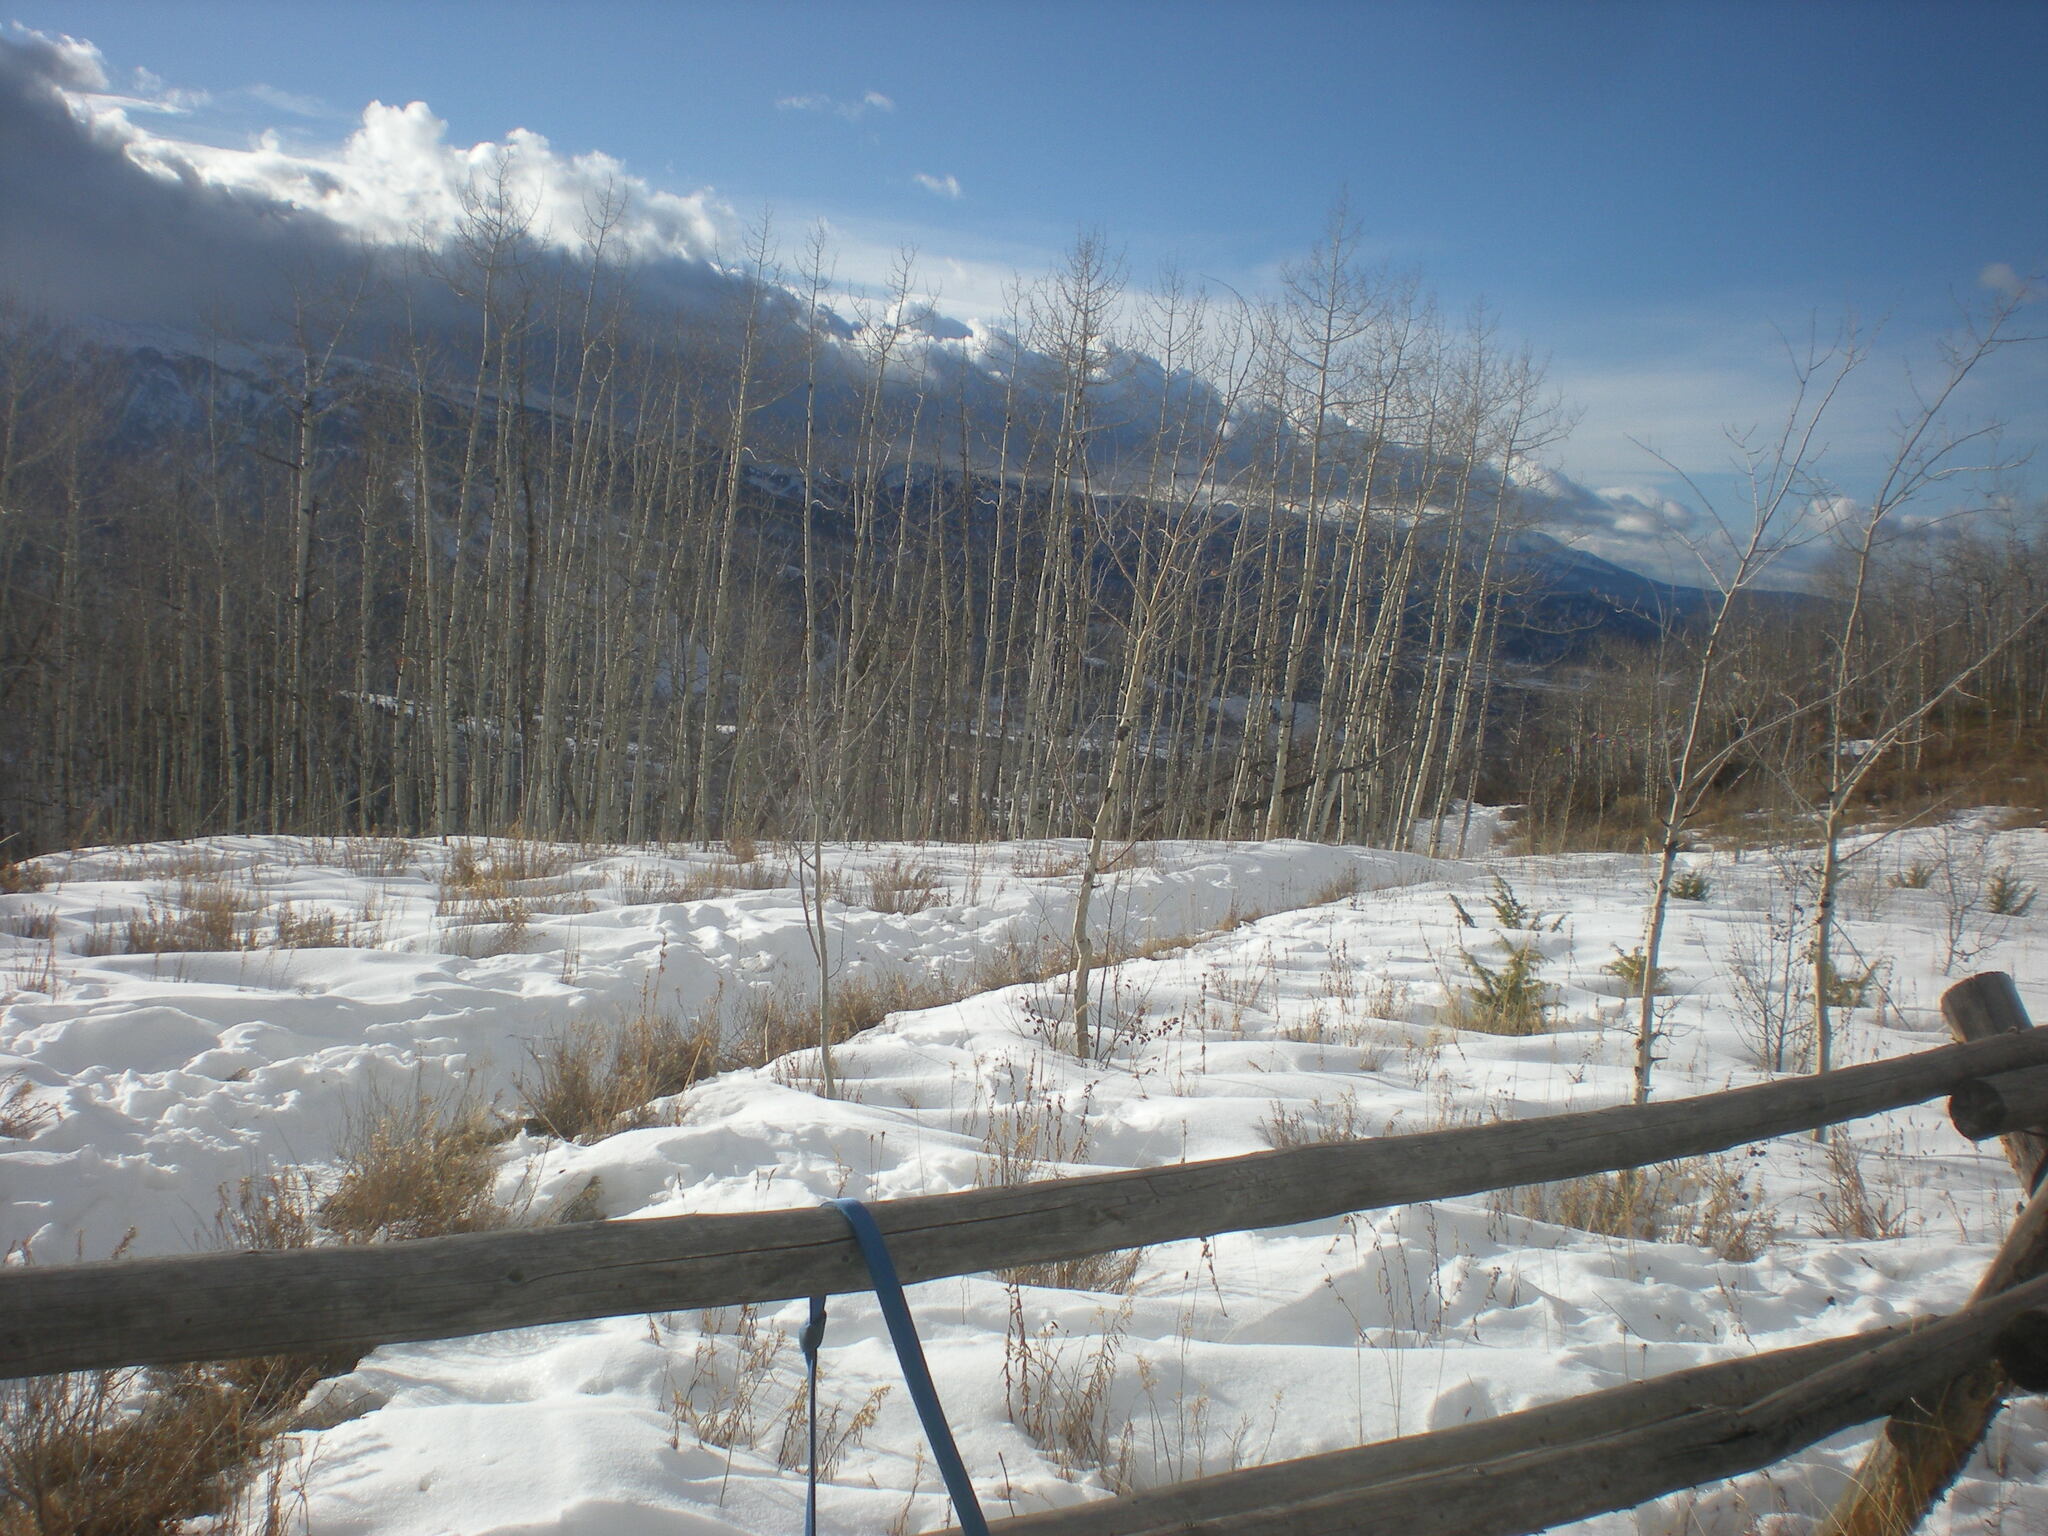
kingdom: Plantae
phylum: Tracheophyta
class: Magnoliopsida
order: Malpighiales
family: Salicaceae
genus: Populus
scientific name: Populus tremuloides
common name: Quaking aspen
